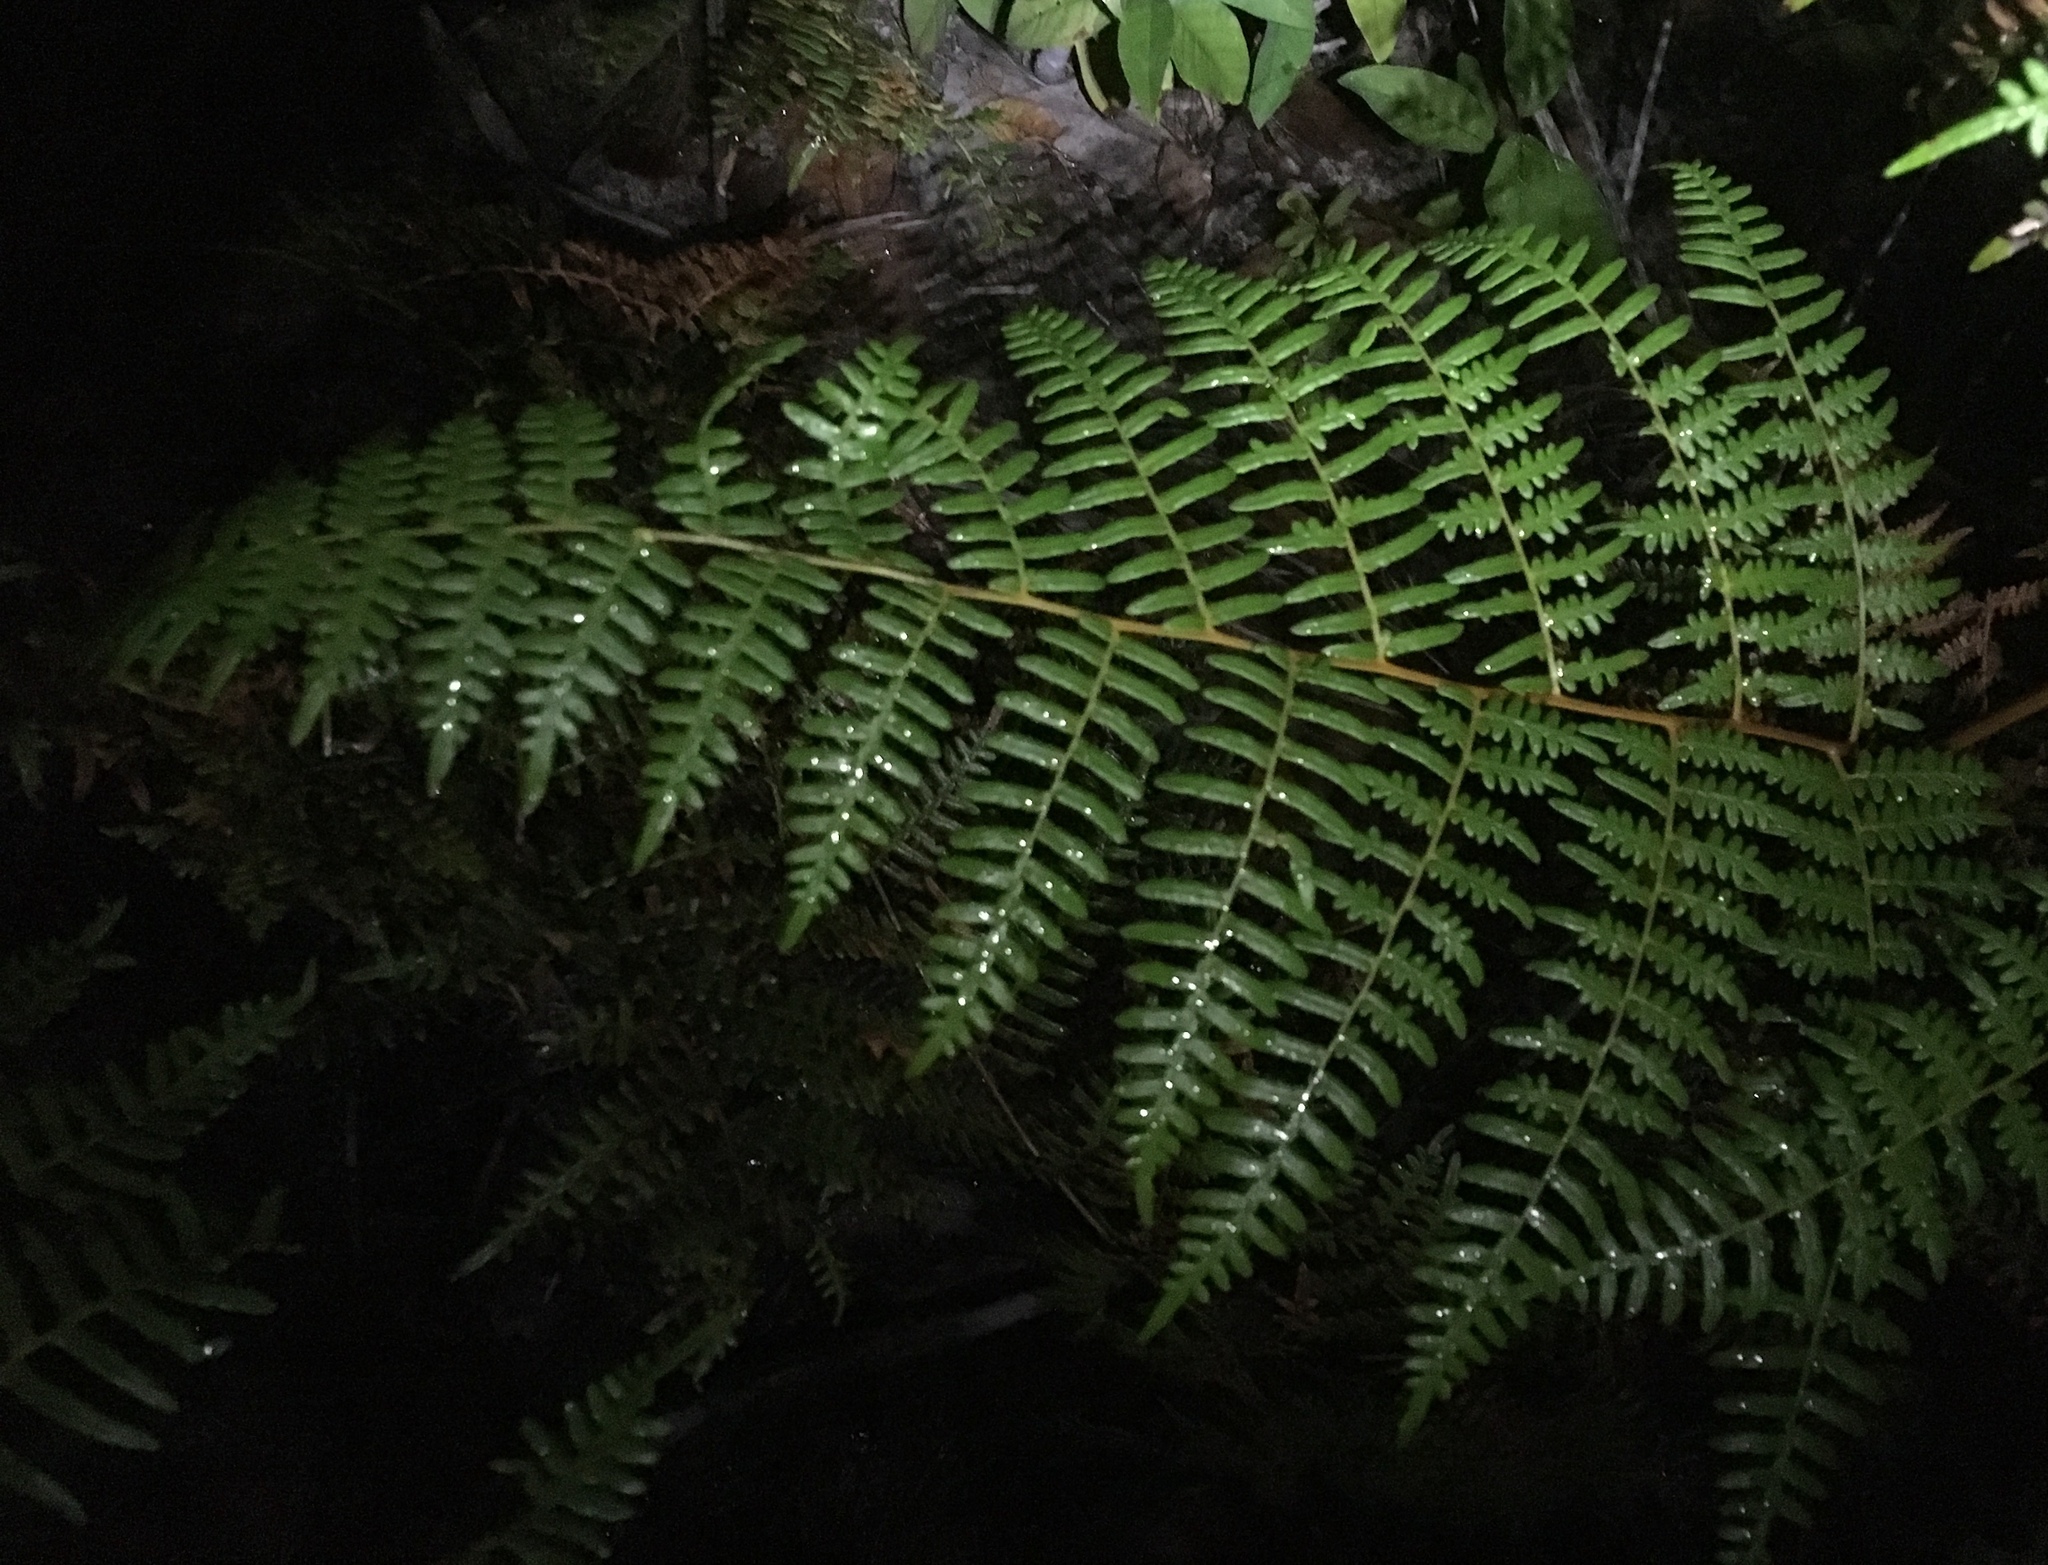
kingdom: Plantae
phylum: Tracheophyta
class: Polypodiopsida
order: Polypodiales
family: Dennstaedtiaceae
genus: Pteridium
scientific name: Pteridium esculentum
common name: Bracken fern
